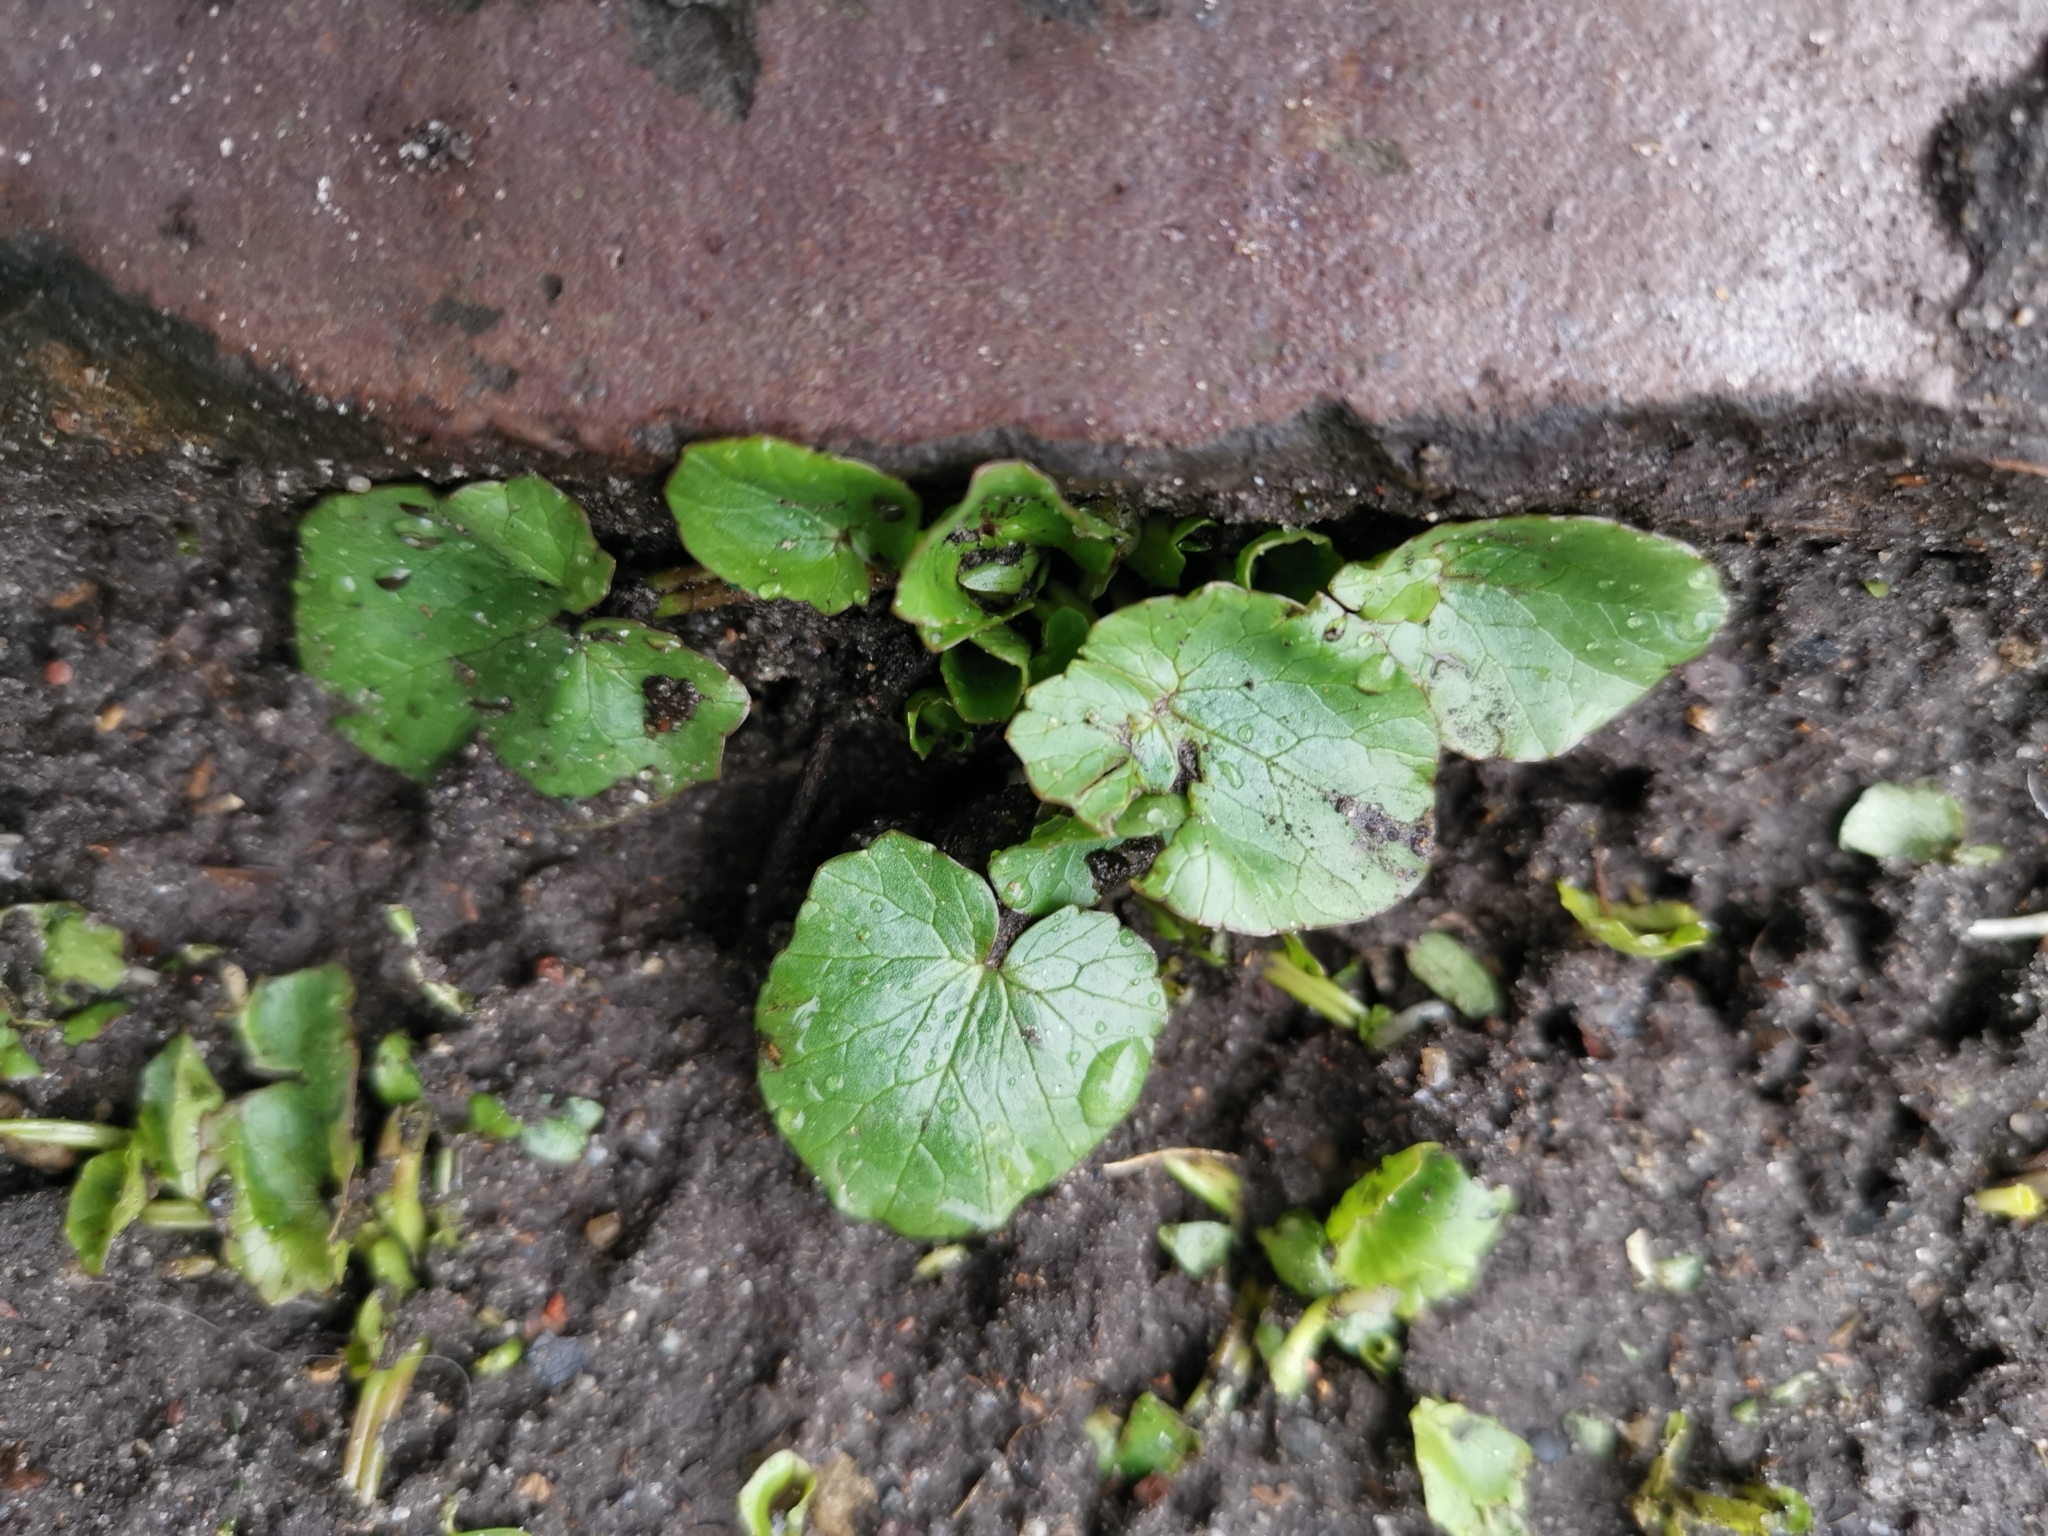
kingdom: Plantae
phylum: Tracheophyta
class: Magnoliopsida
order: Ranunculales
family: Ranunculaceae
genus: Ficaria
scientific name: Ficaria verna
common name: Lesser celandine
